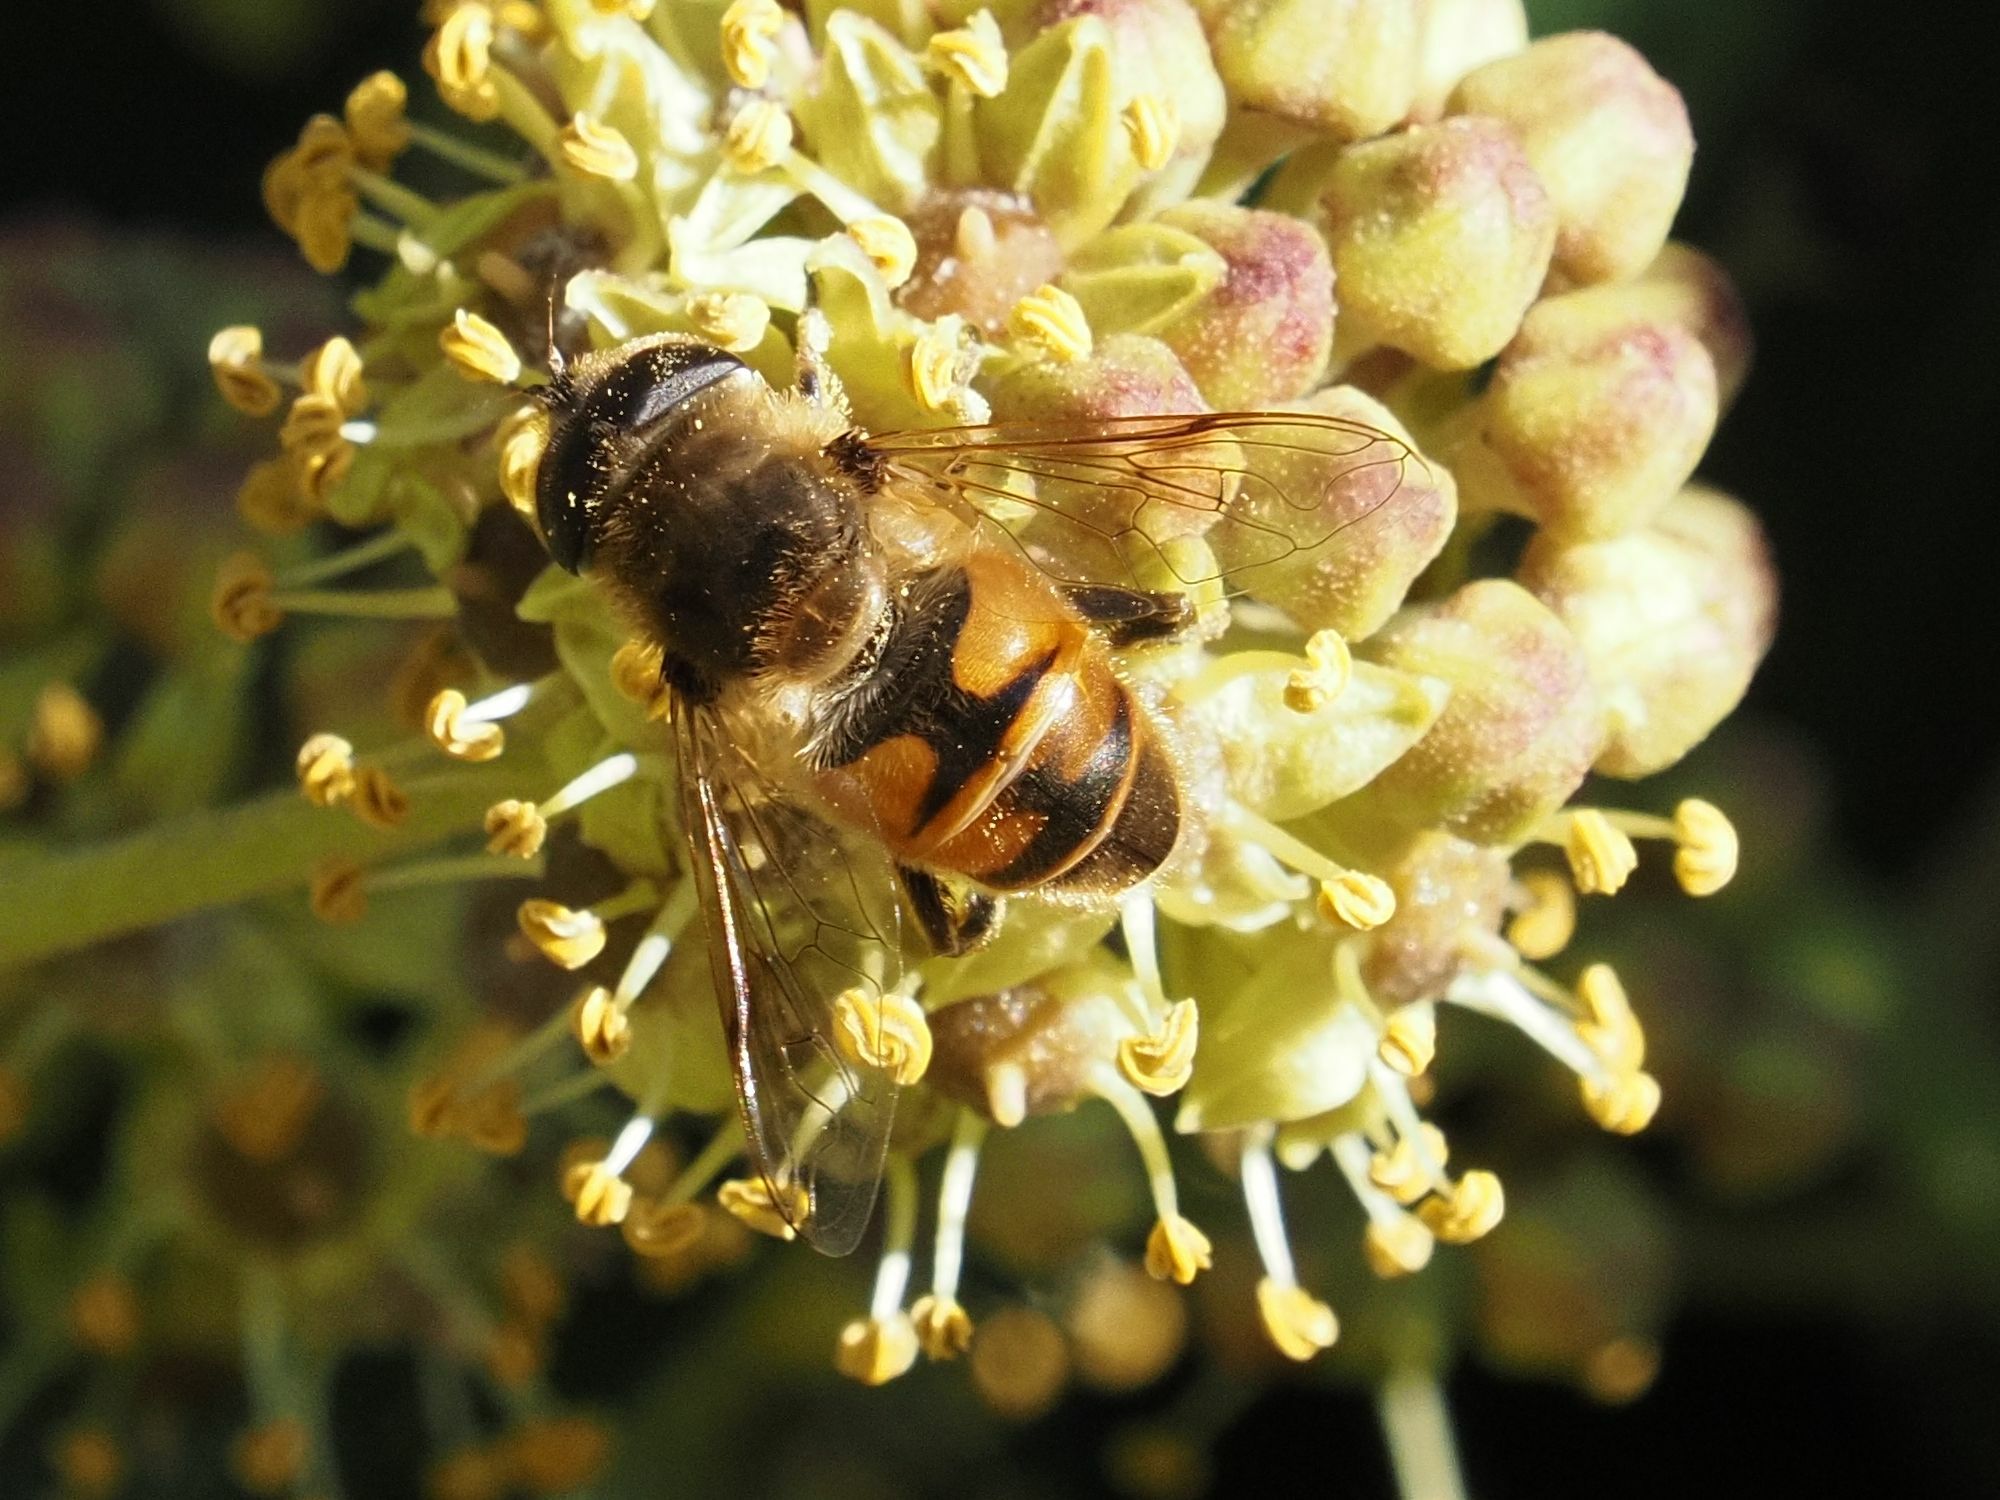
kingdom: Animalia
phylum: Arthropoda
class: Insecta
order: Diptera
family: Syrphidae
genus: Eristalis
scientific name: Eristalis tenax
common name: Drone fly
